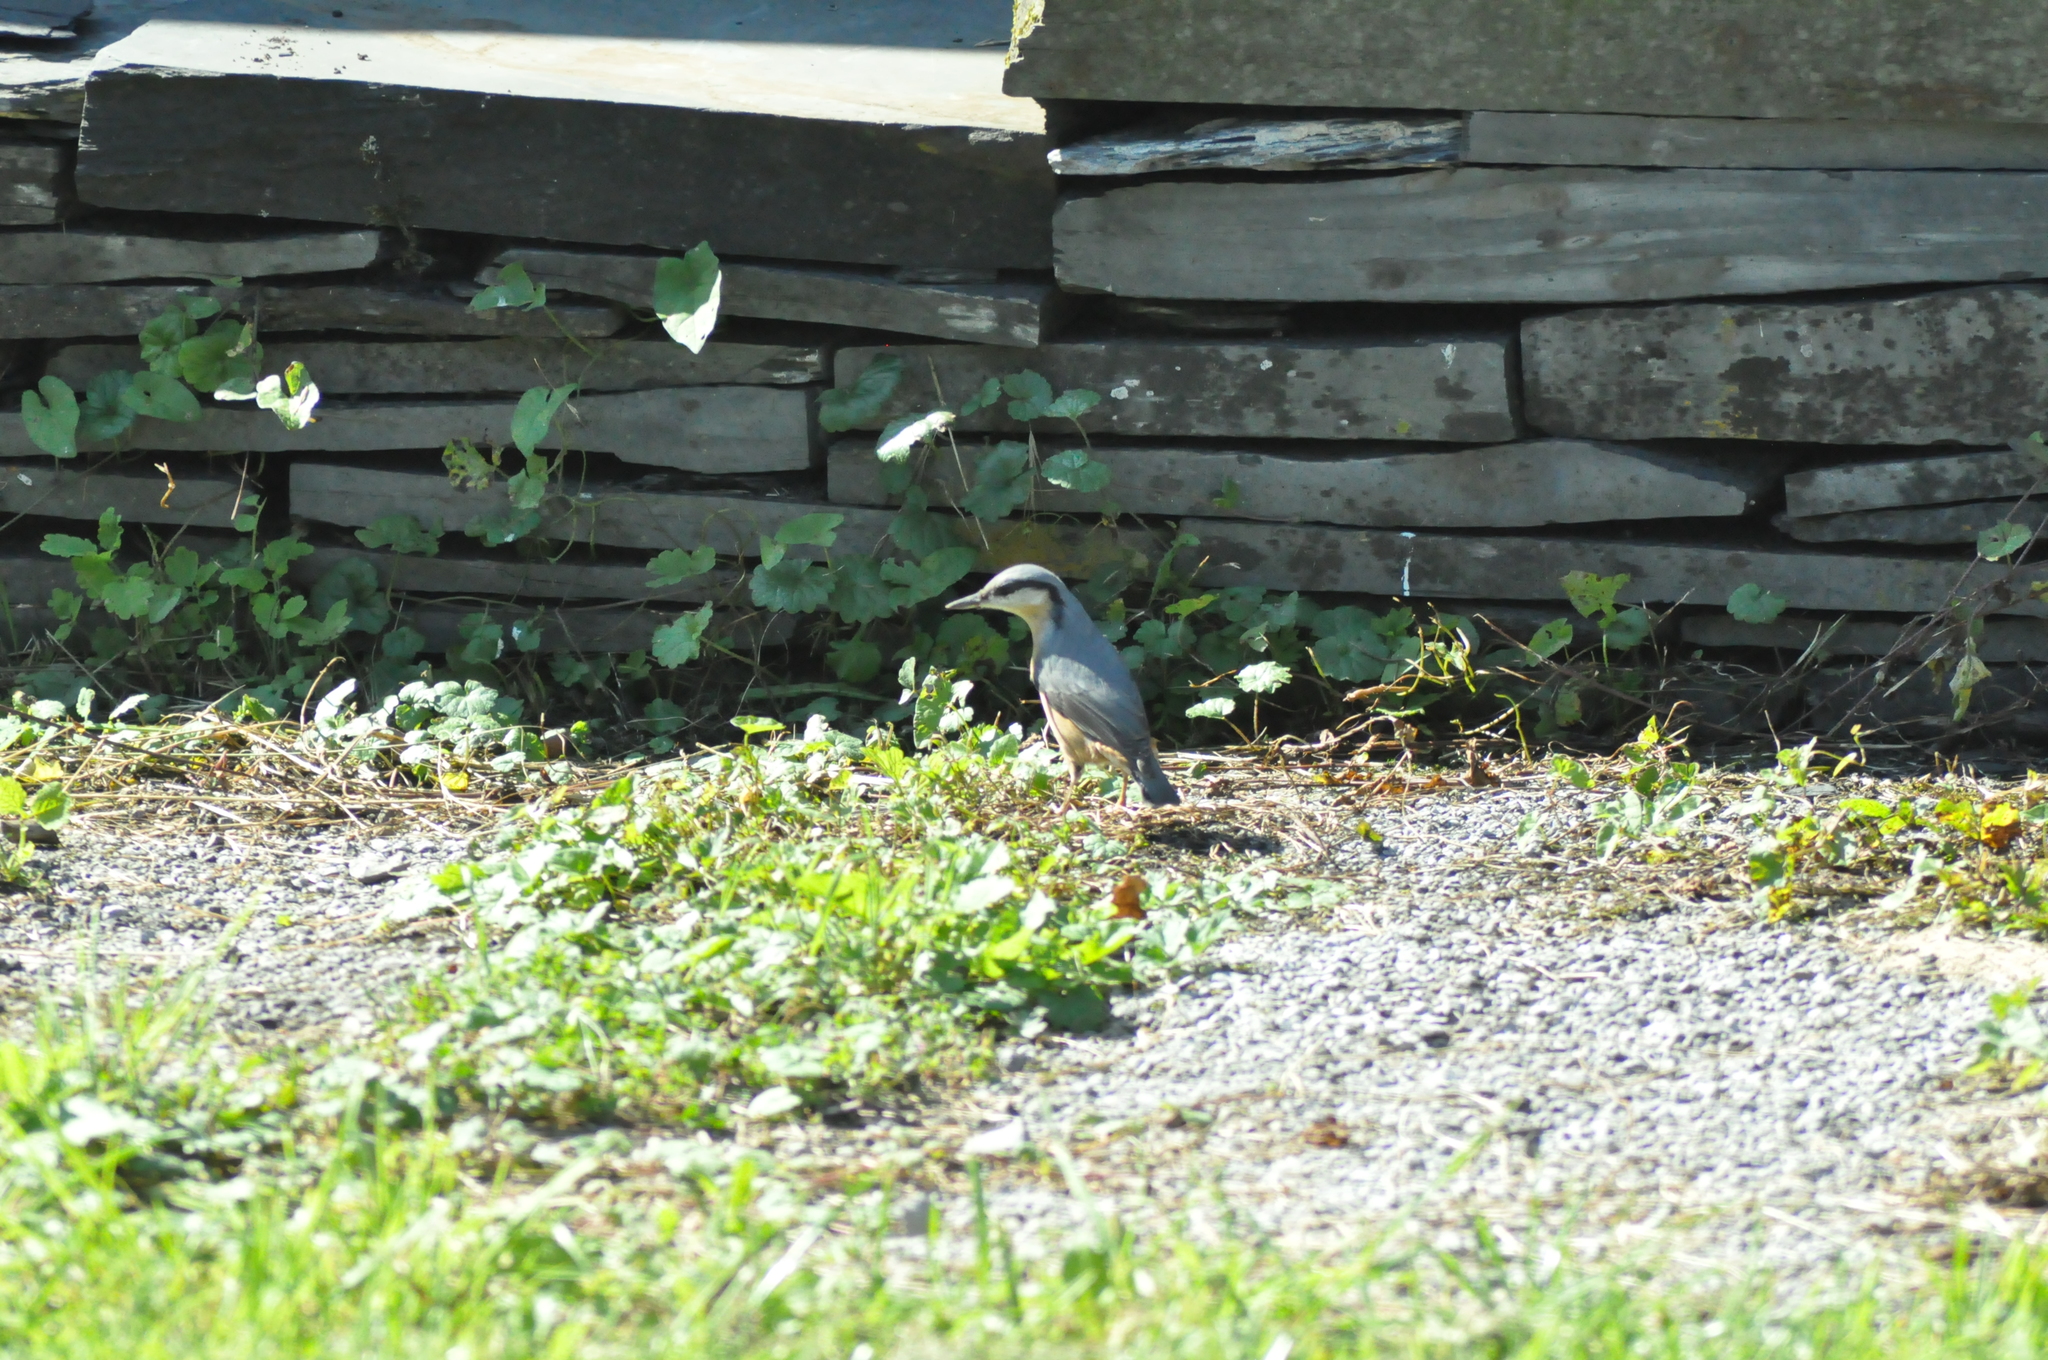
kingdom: Animalia
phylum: Chordata
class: Aves
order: Passeriformes
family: Sittidae
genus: Sitta
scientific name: Sitta europaea
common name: Eurasian nuthatch
